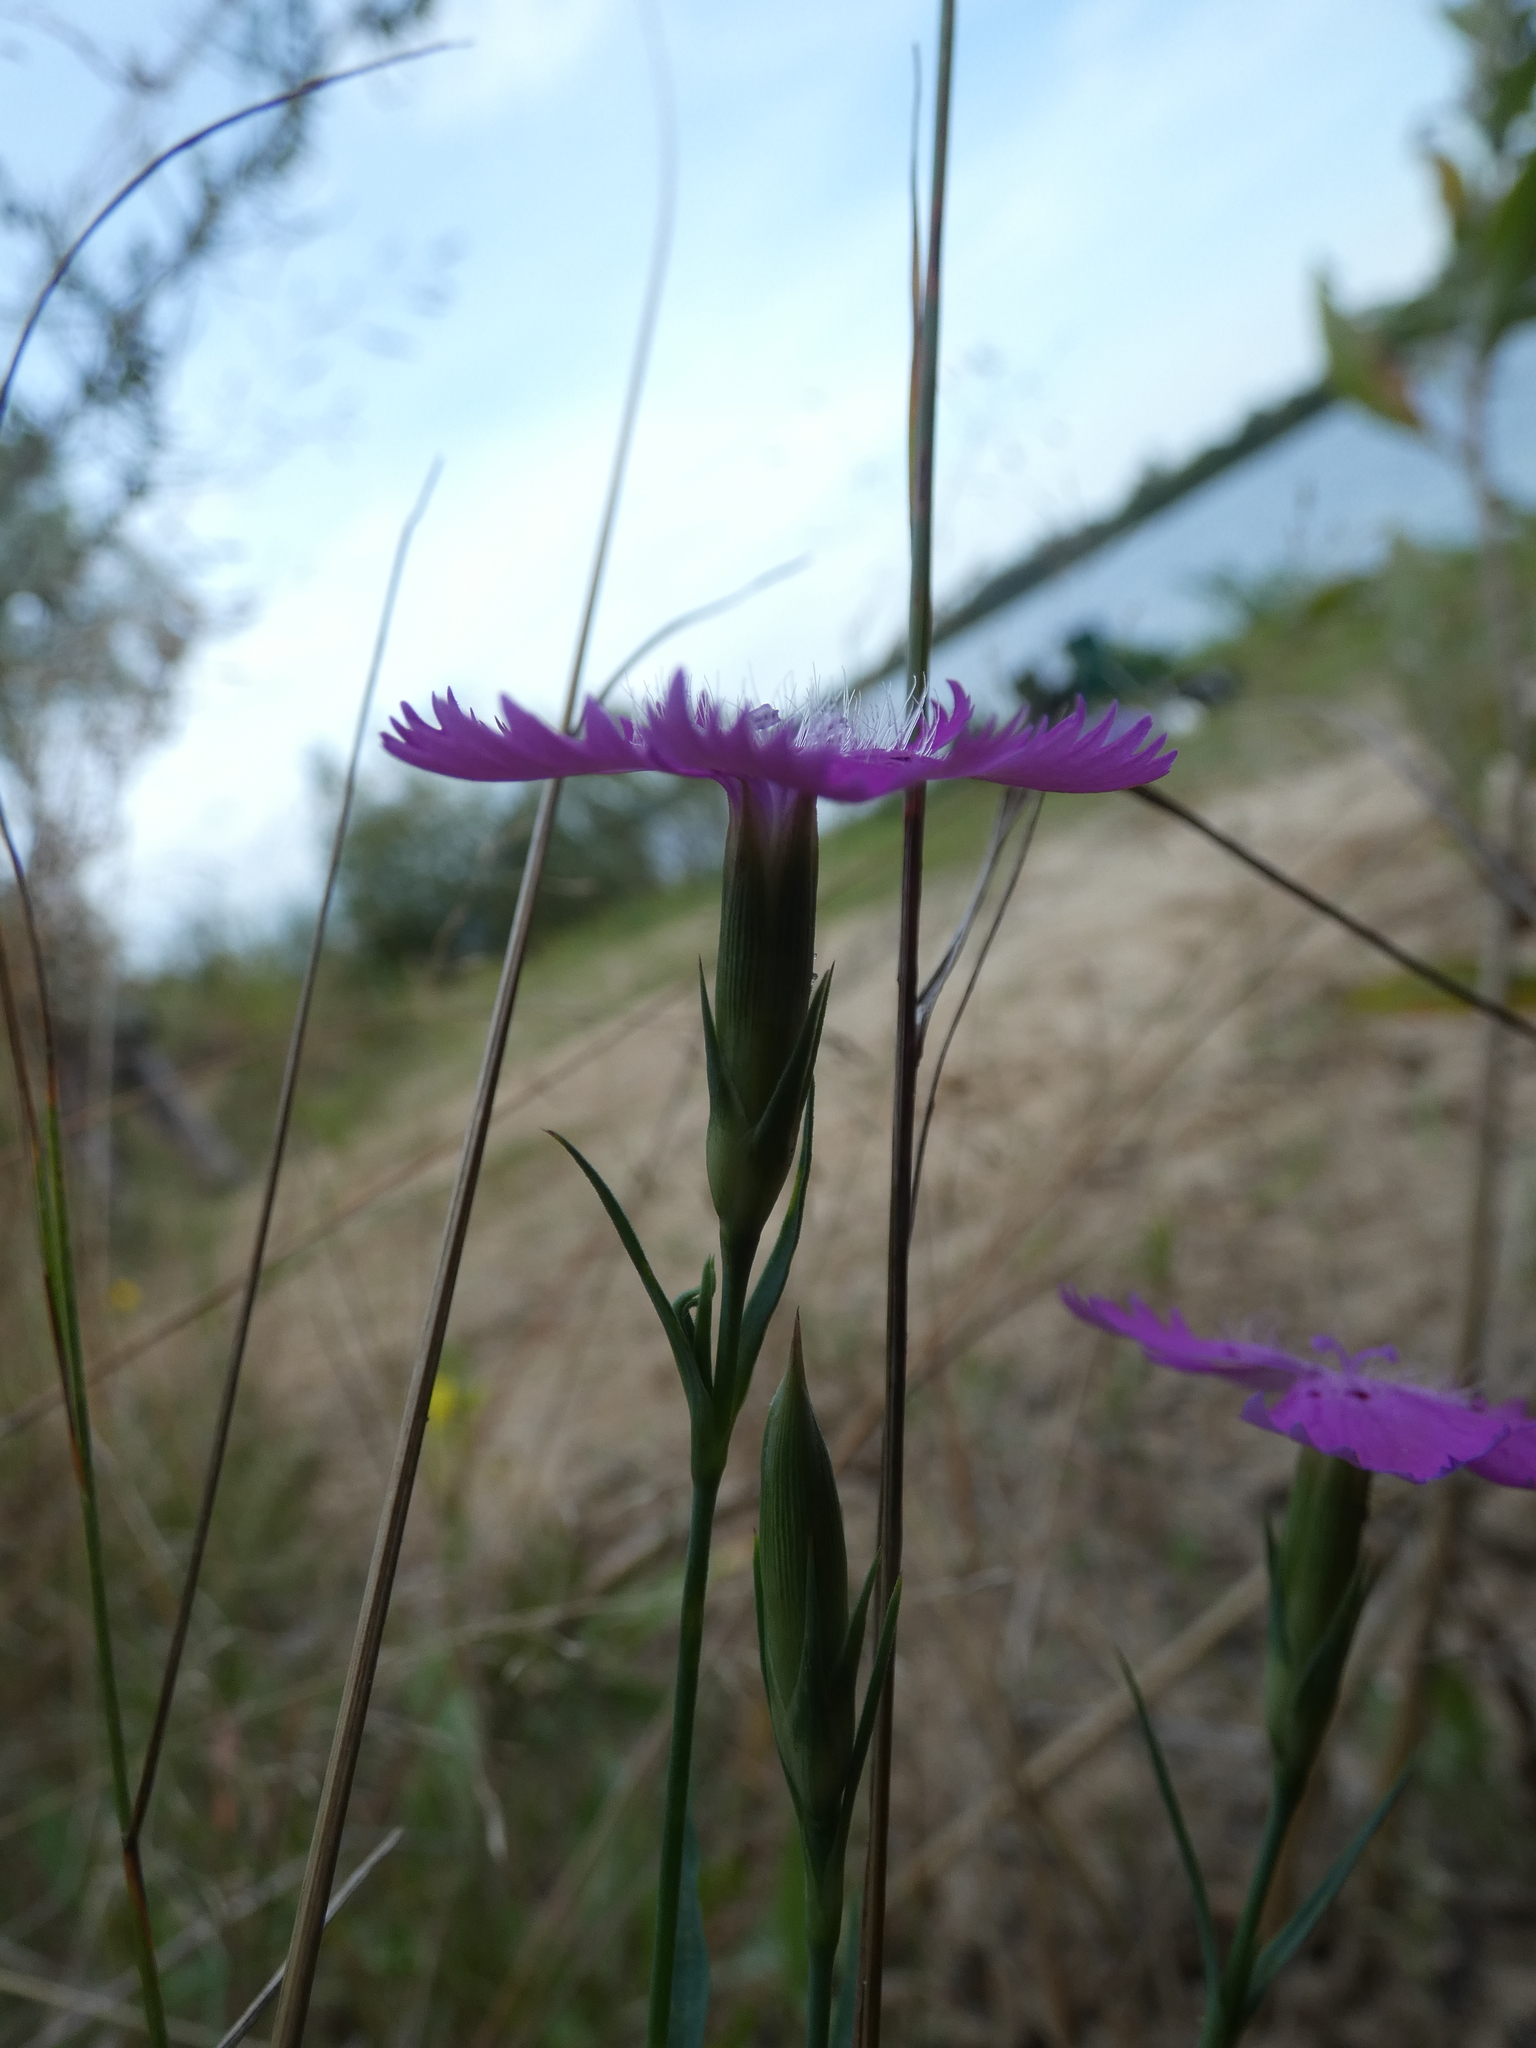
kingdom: Plantae
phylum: Tracheophyta
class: Magnoliopsida
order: Caryophyllales
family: Caryophyllaceae
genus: Dianthus
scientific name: Dianthus chinensis
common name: Rainbow pink
